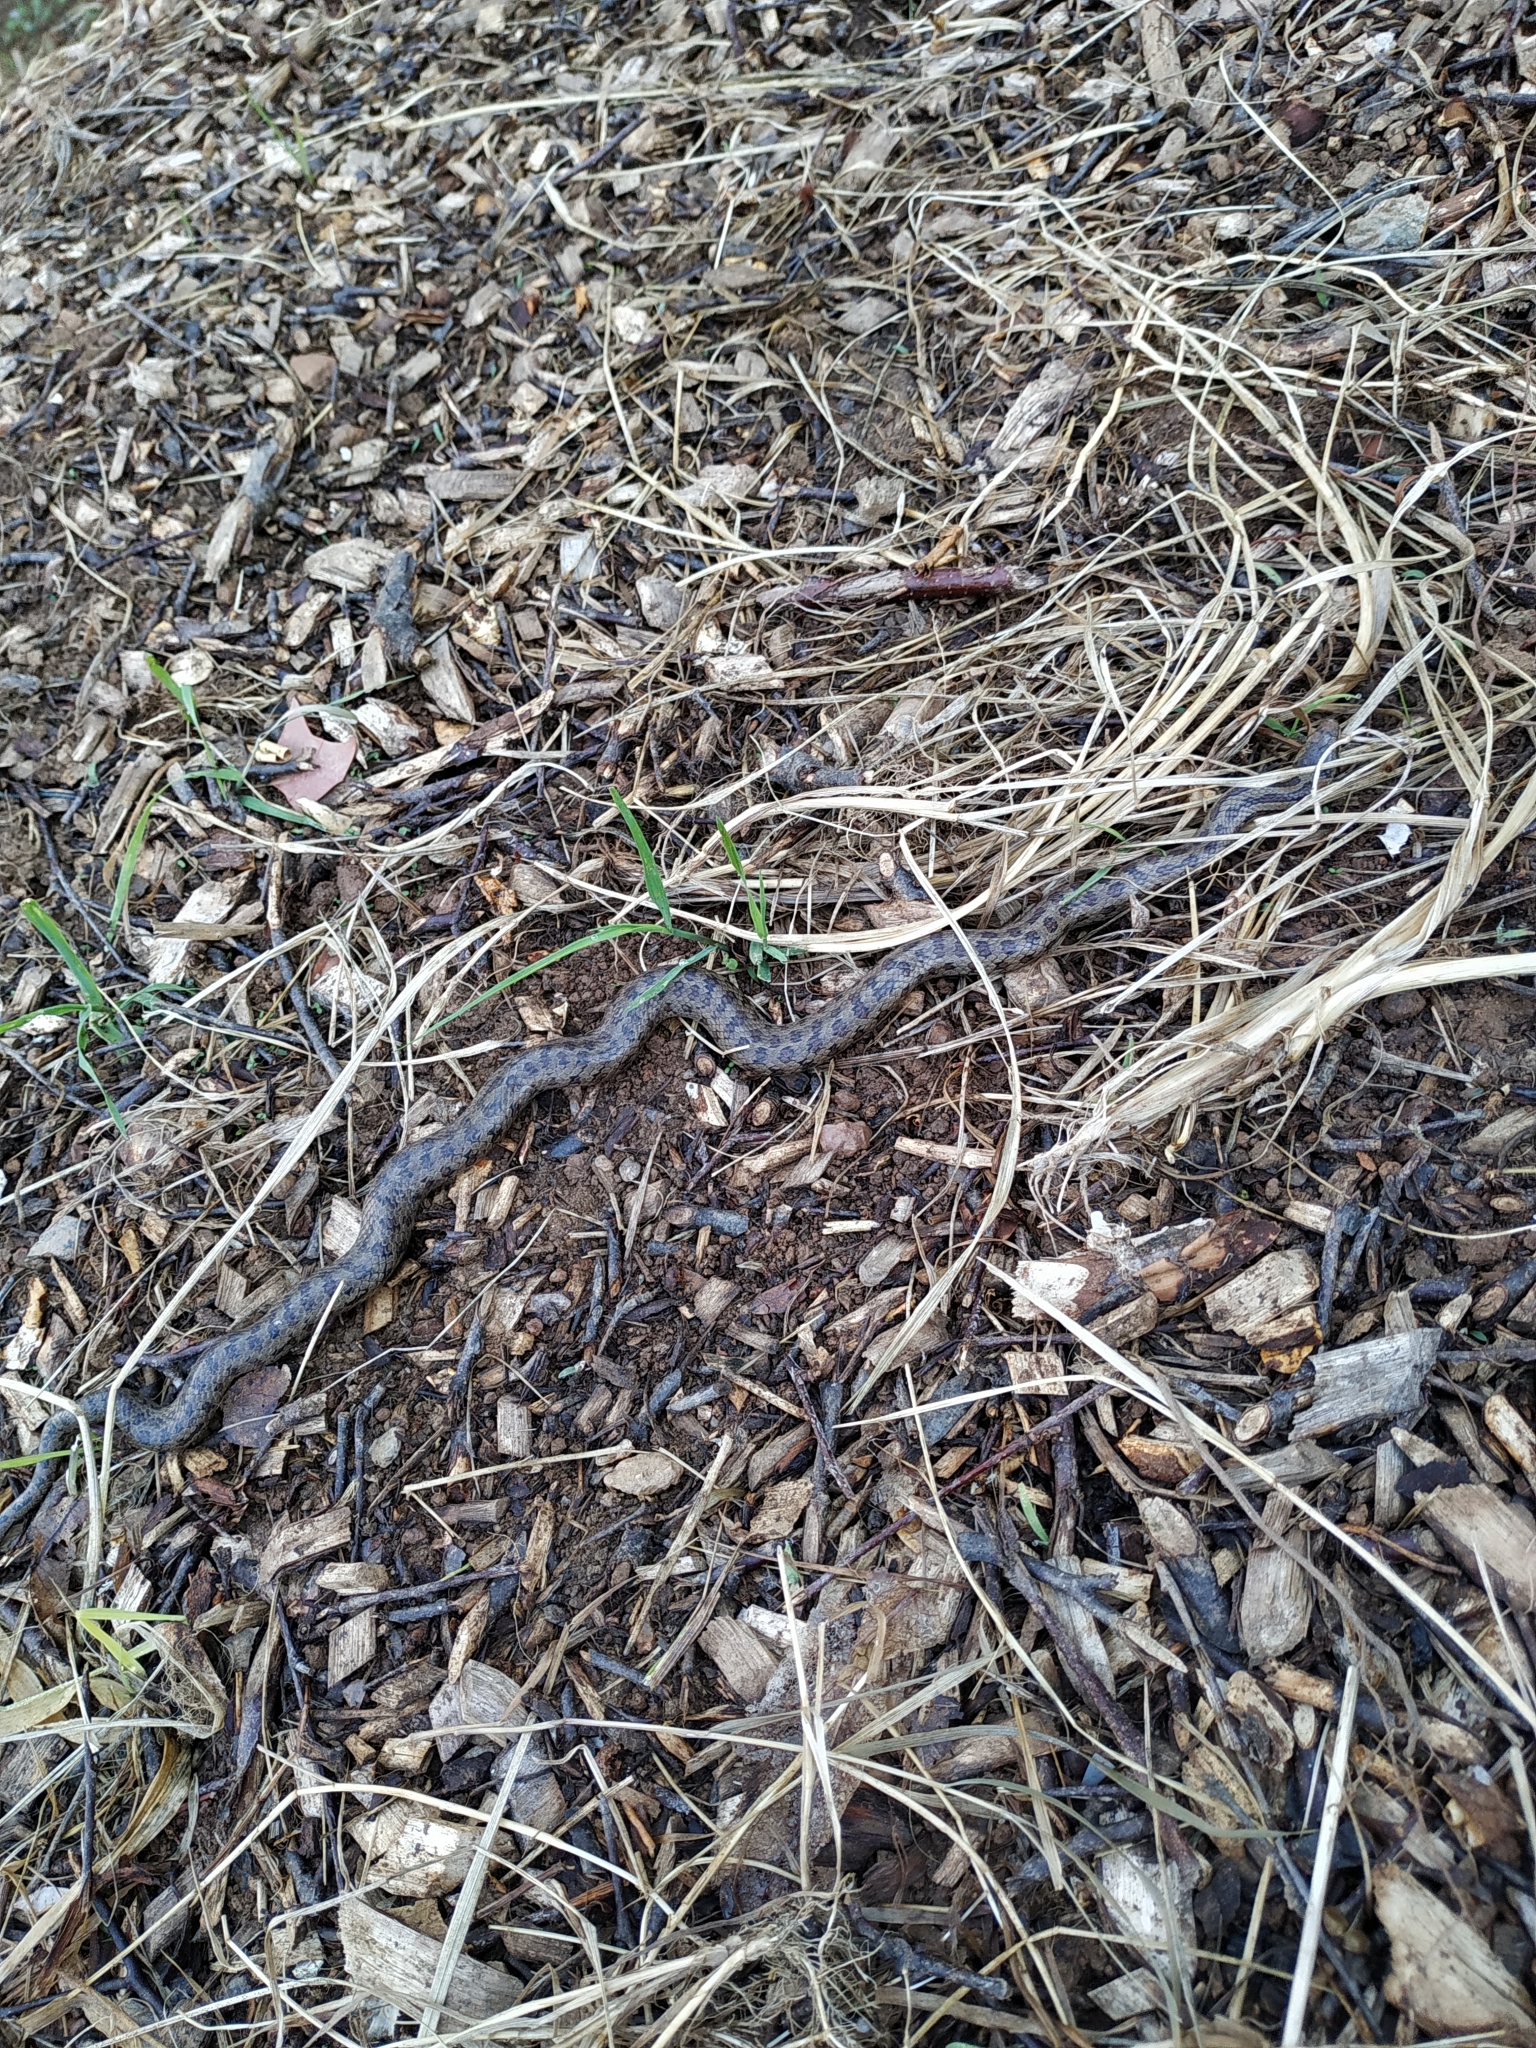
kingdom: Animalia
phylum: Chordata
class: Squamata
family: Colubridae
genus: Coronella
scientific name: Coronella austriaca
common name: Smooth snake
